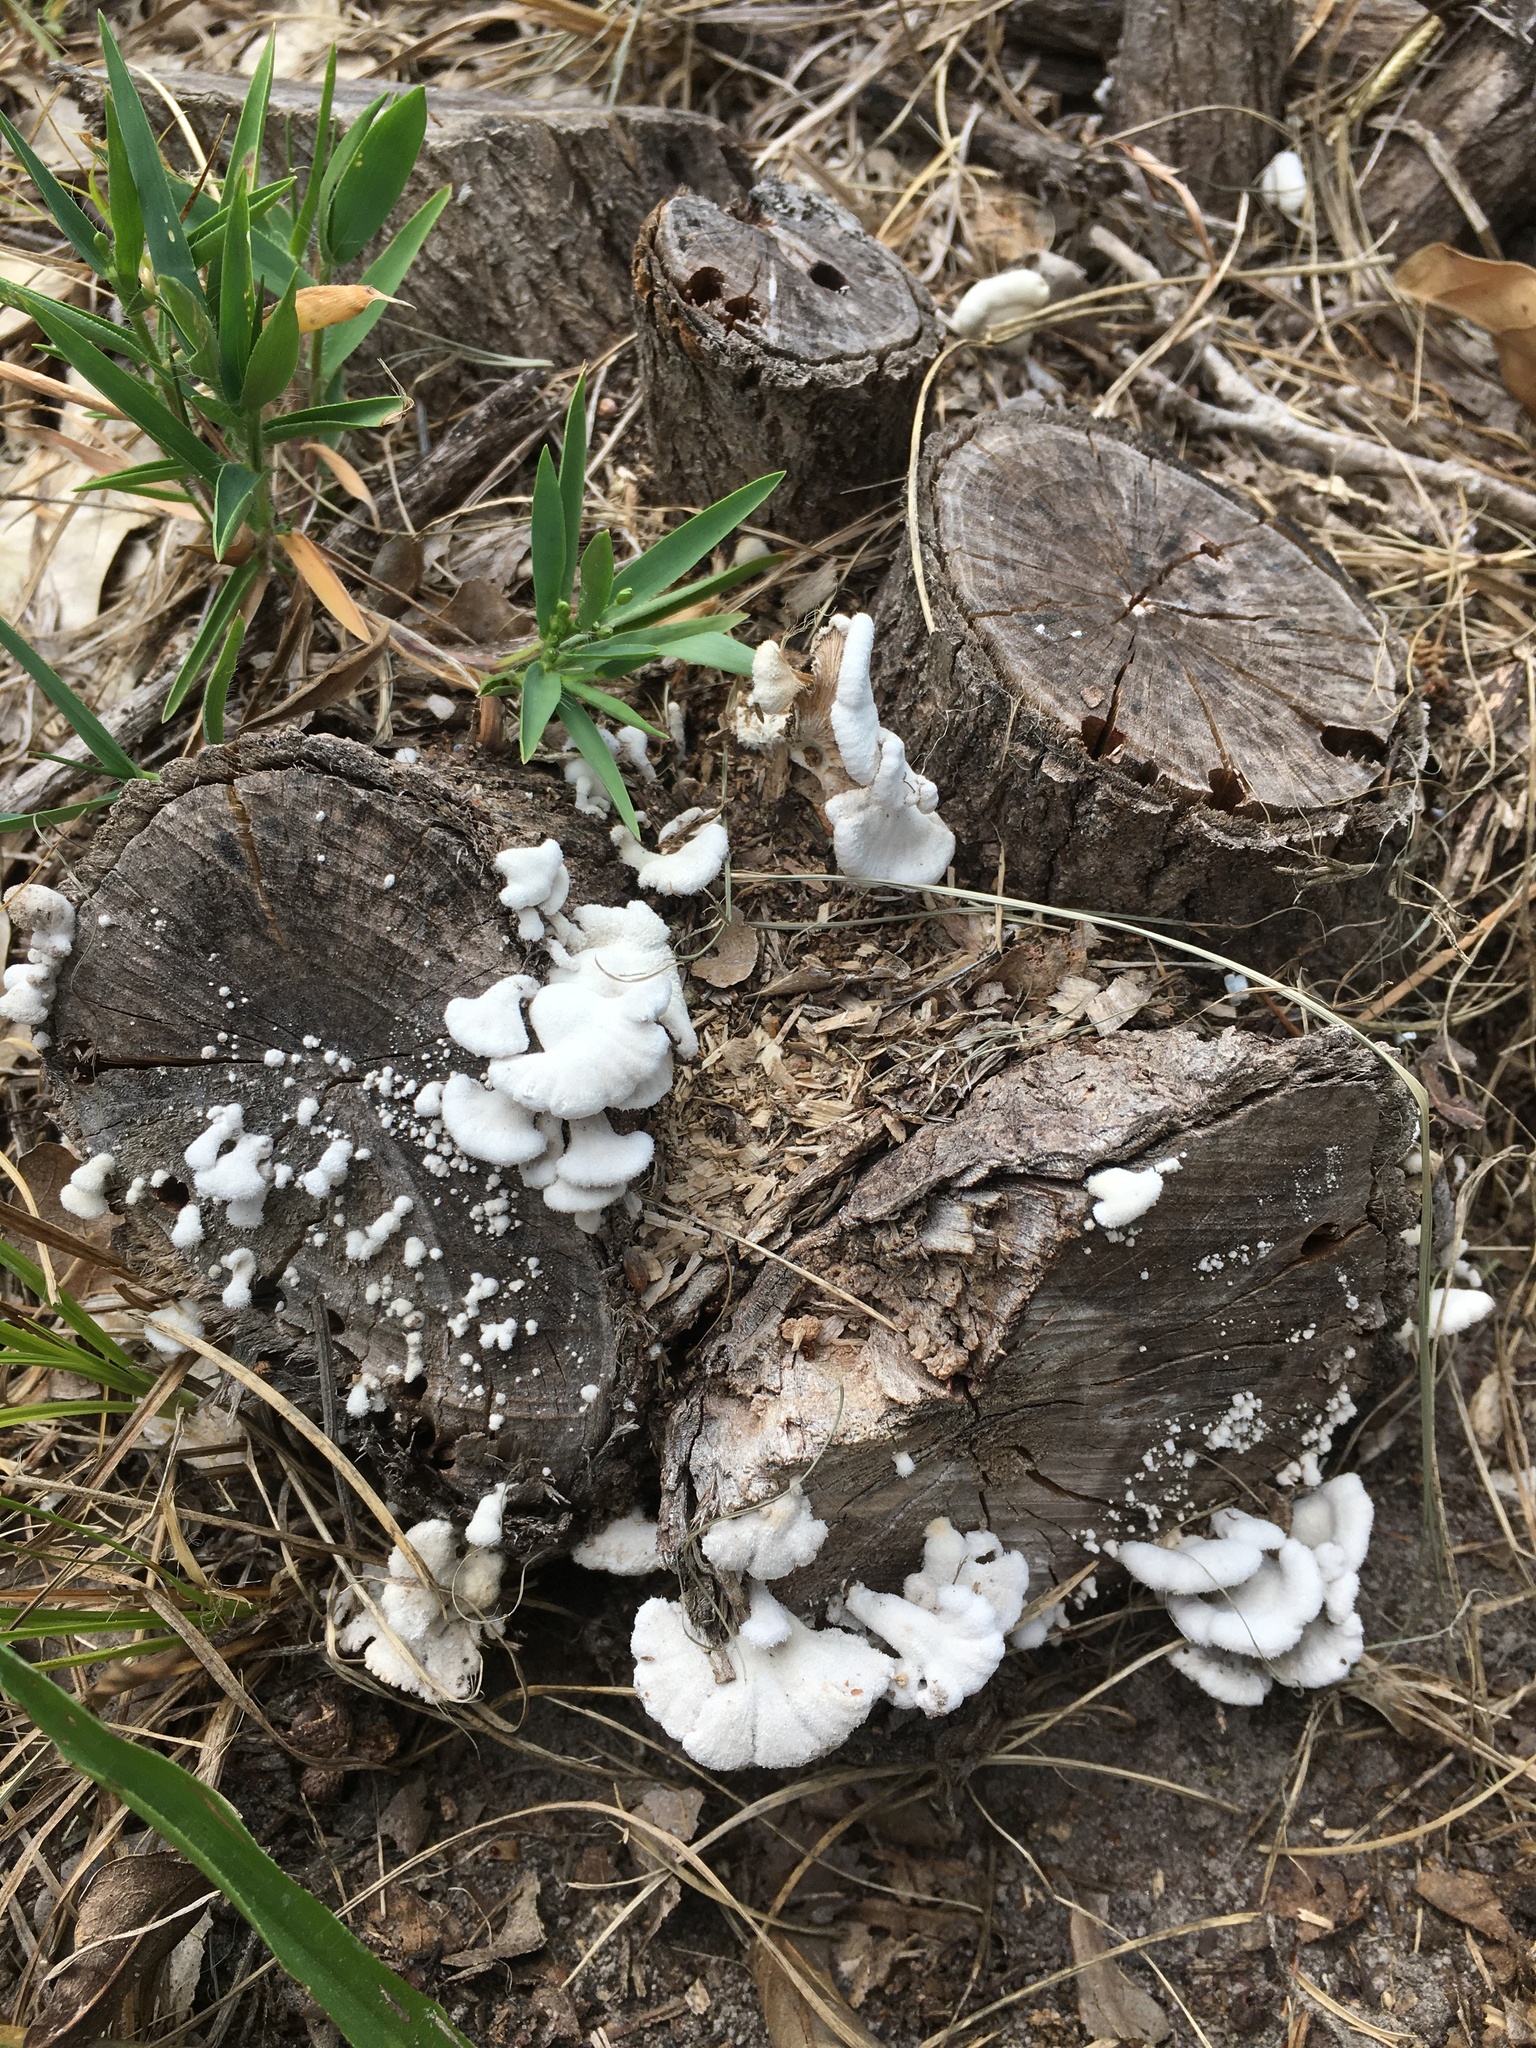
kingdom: Fungi
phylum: Basidiomycota
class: Agaricomycetes
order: Agaricales
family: Schizophyllaceae
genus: Schizophyllum
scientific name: Schizophyllum commune
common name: Common porecrust
